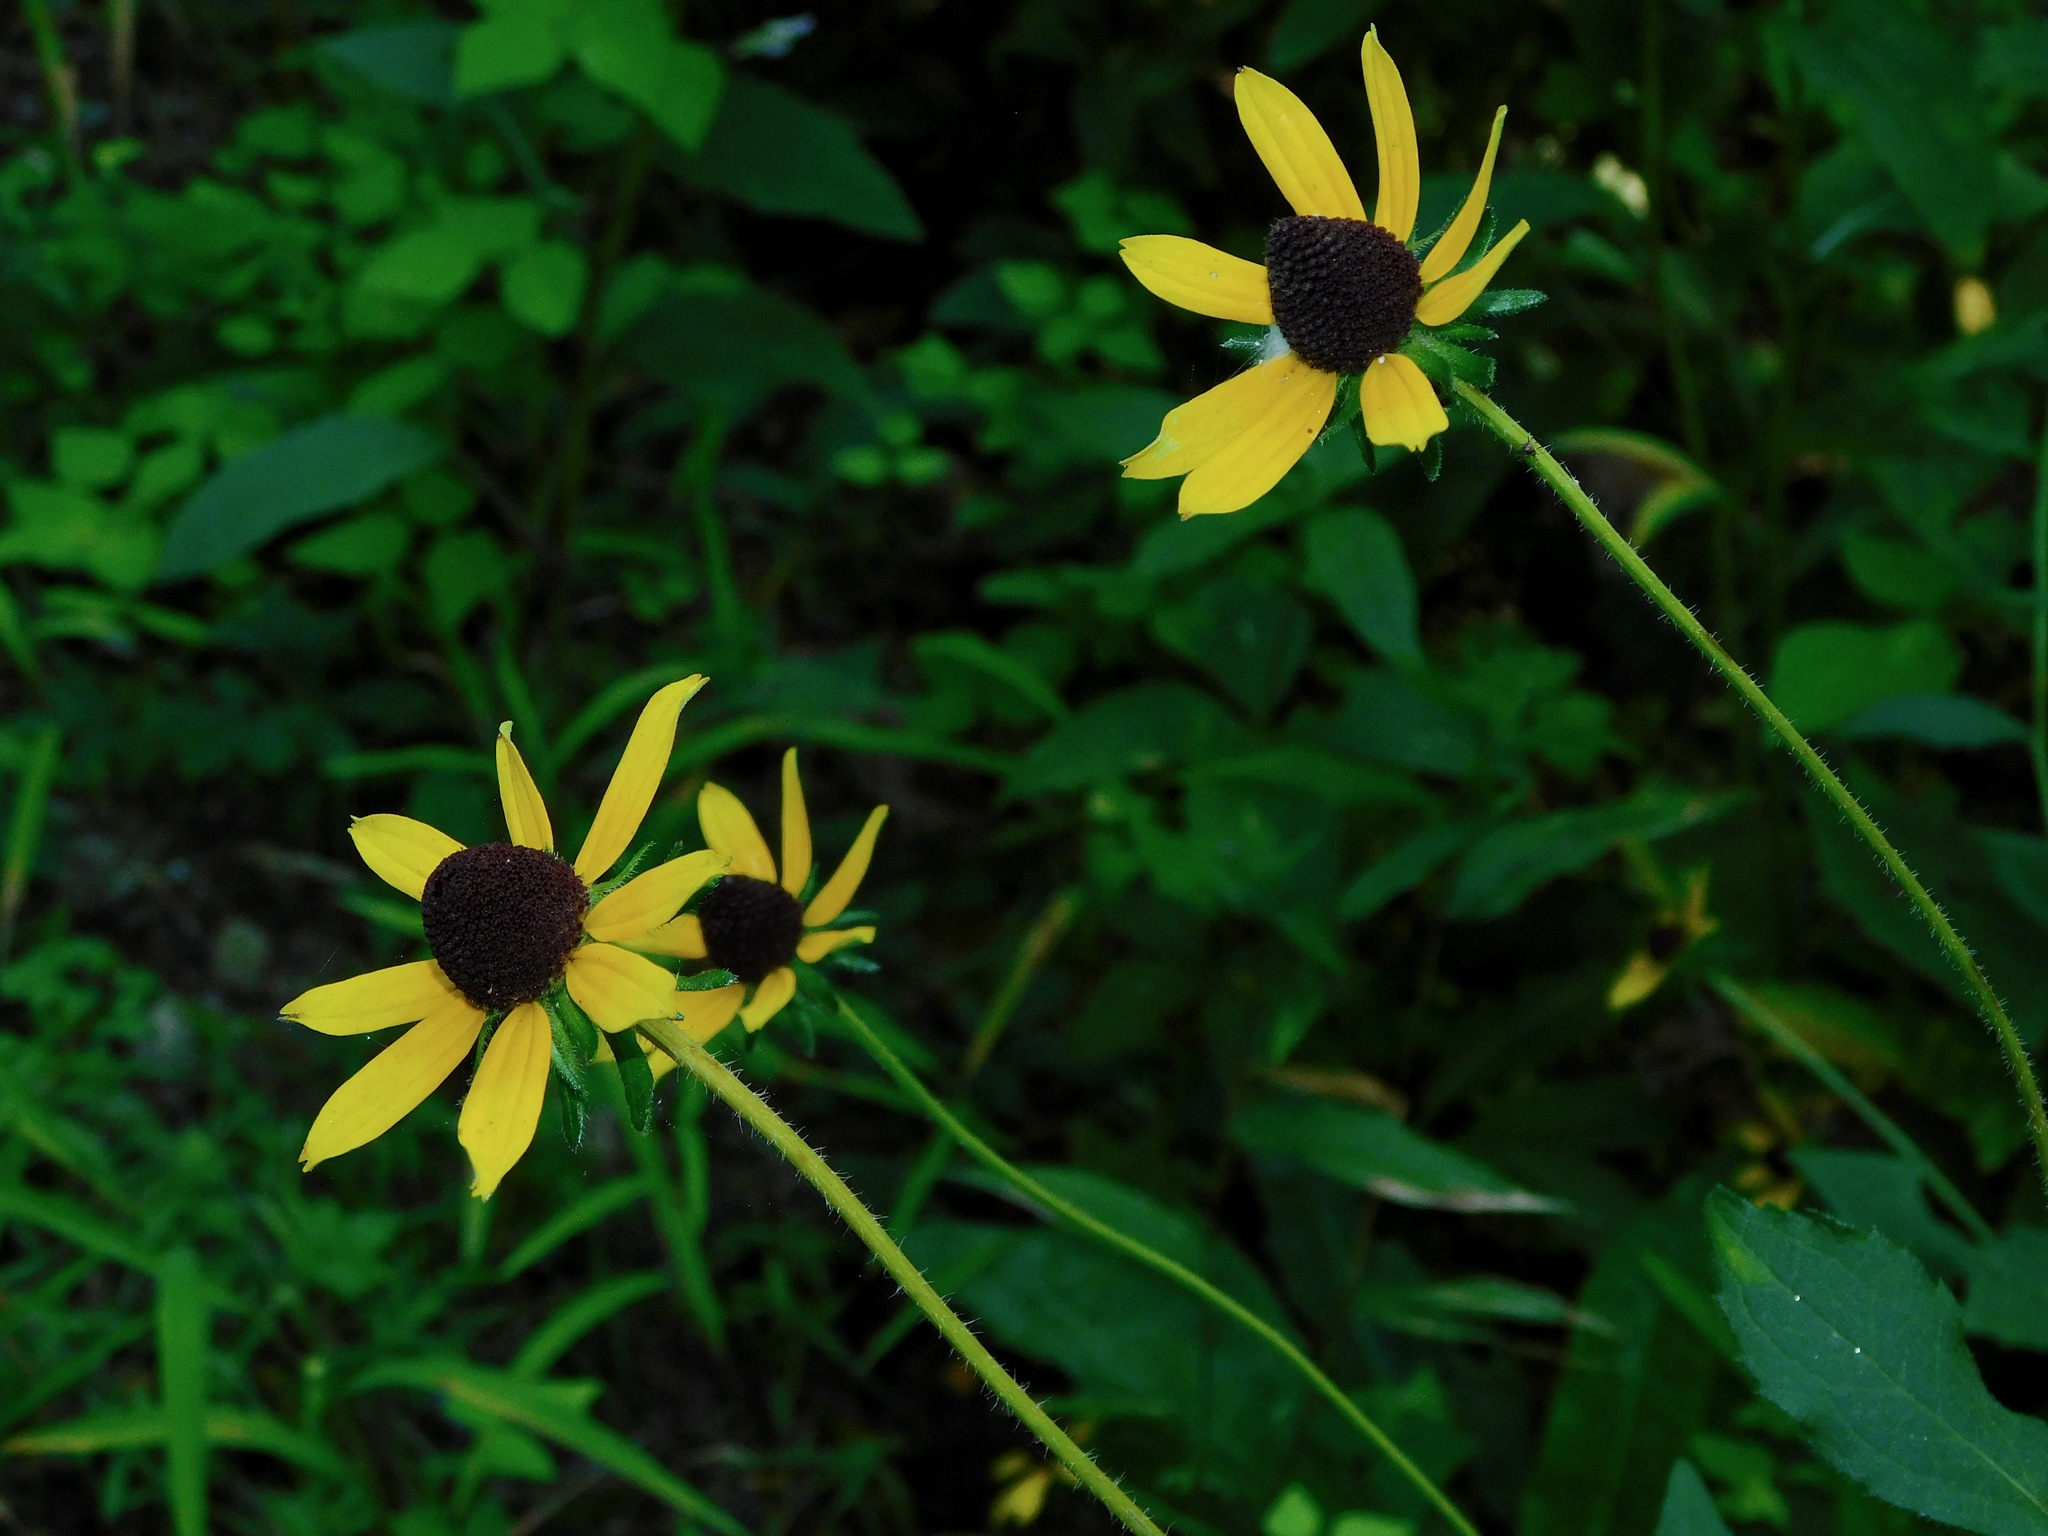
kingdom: Plantae
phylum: Tracheophyta
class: Magnoliopsida
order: Asterales
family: Asteraceae
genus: Rudbeckia
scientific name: Rudbeckia hirta
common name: Black-eyed-susan
